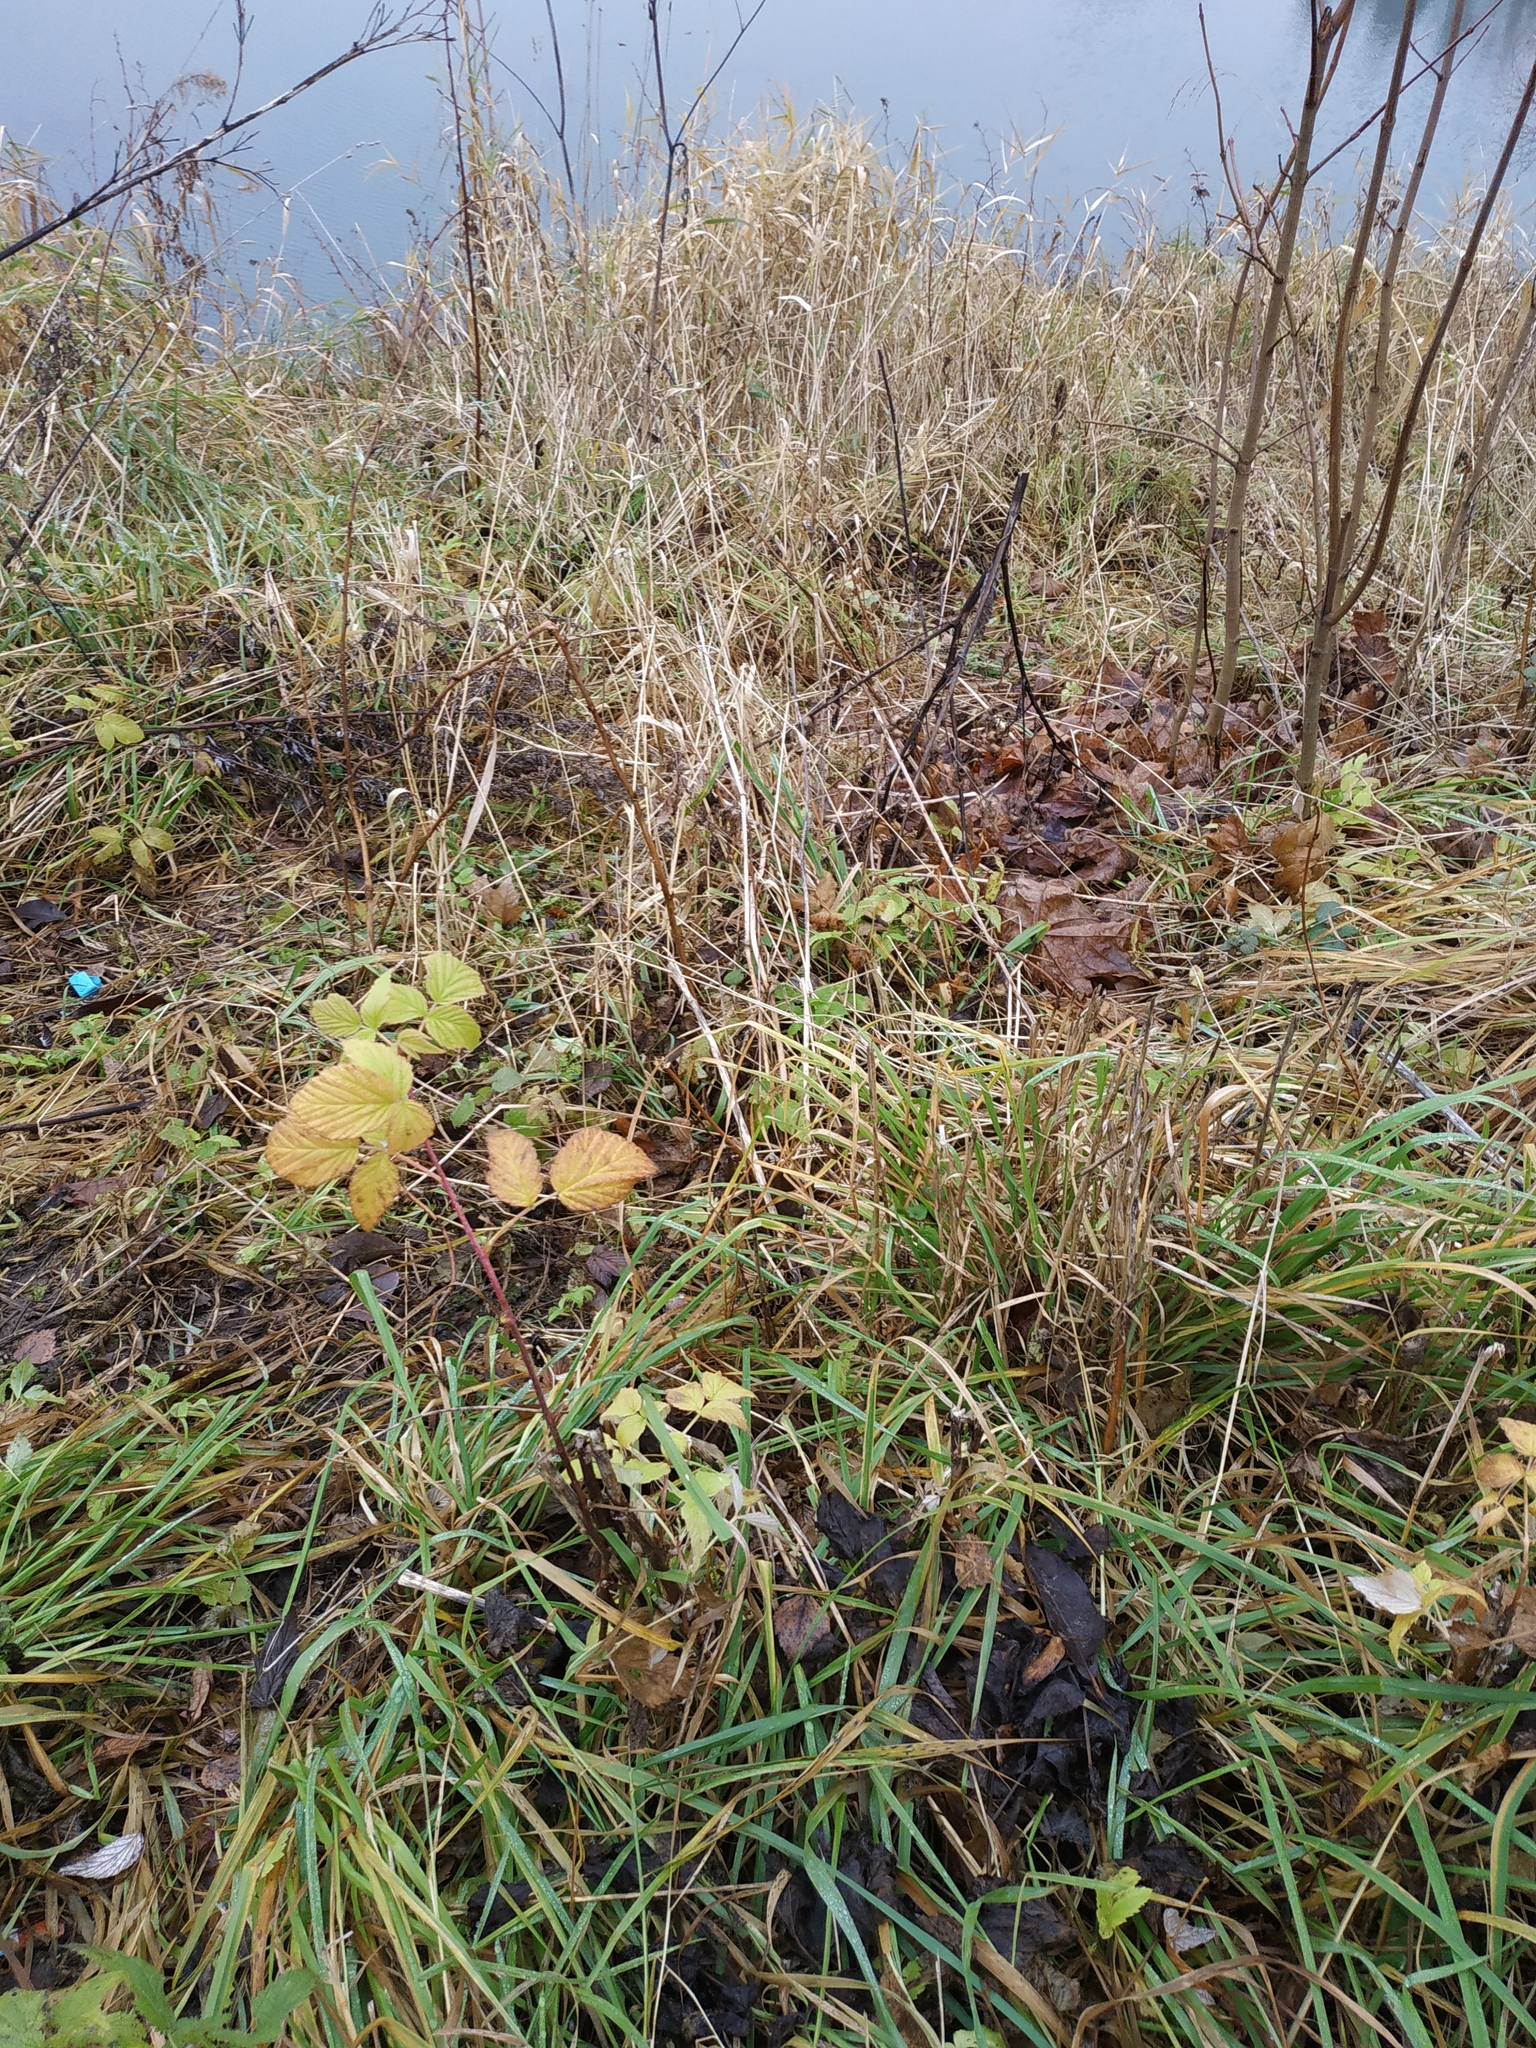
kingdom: Plantae
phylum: Tracheophyta
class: Magnoliopsida
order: Rosales
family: Rosaceae
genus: Rubus
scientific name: Rubus idaeus
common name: Raspberry
